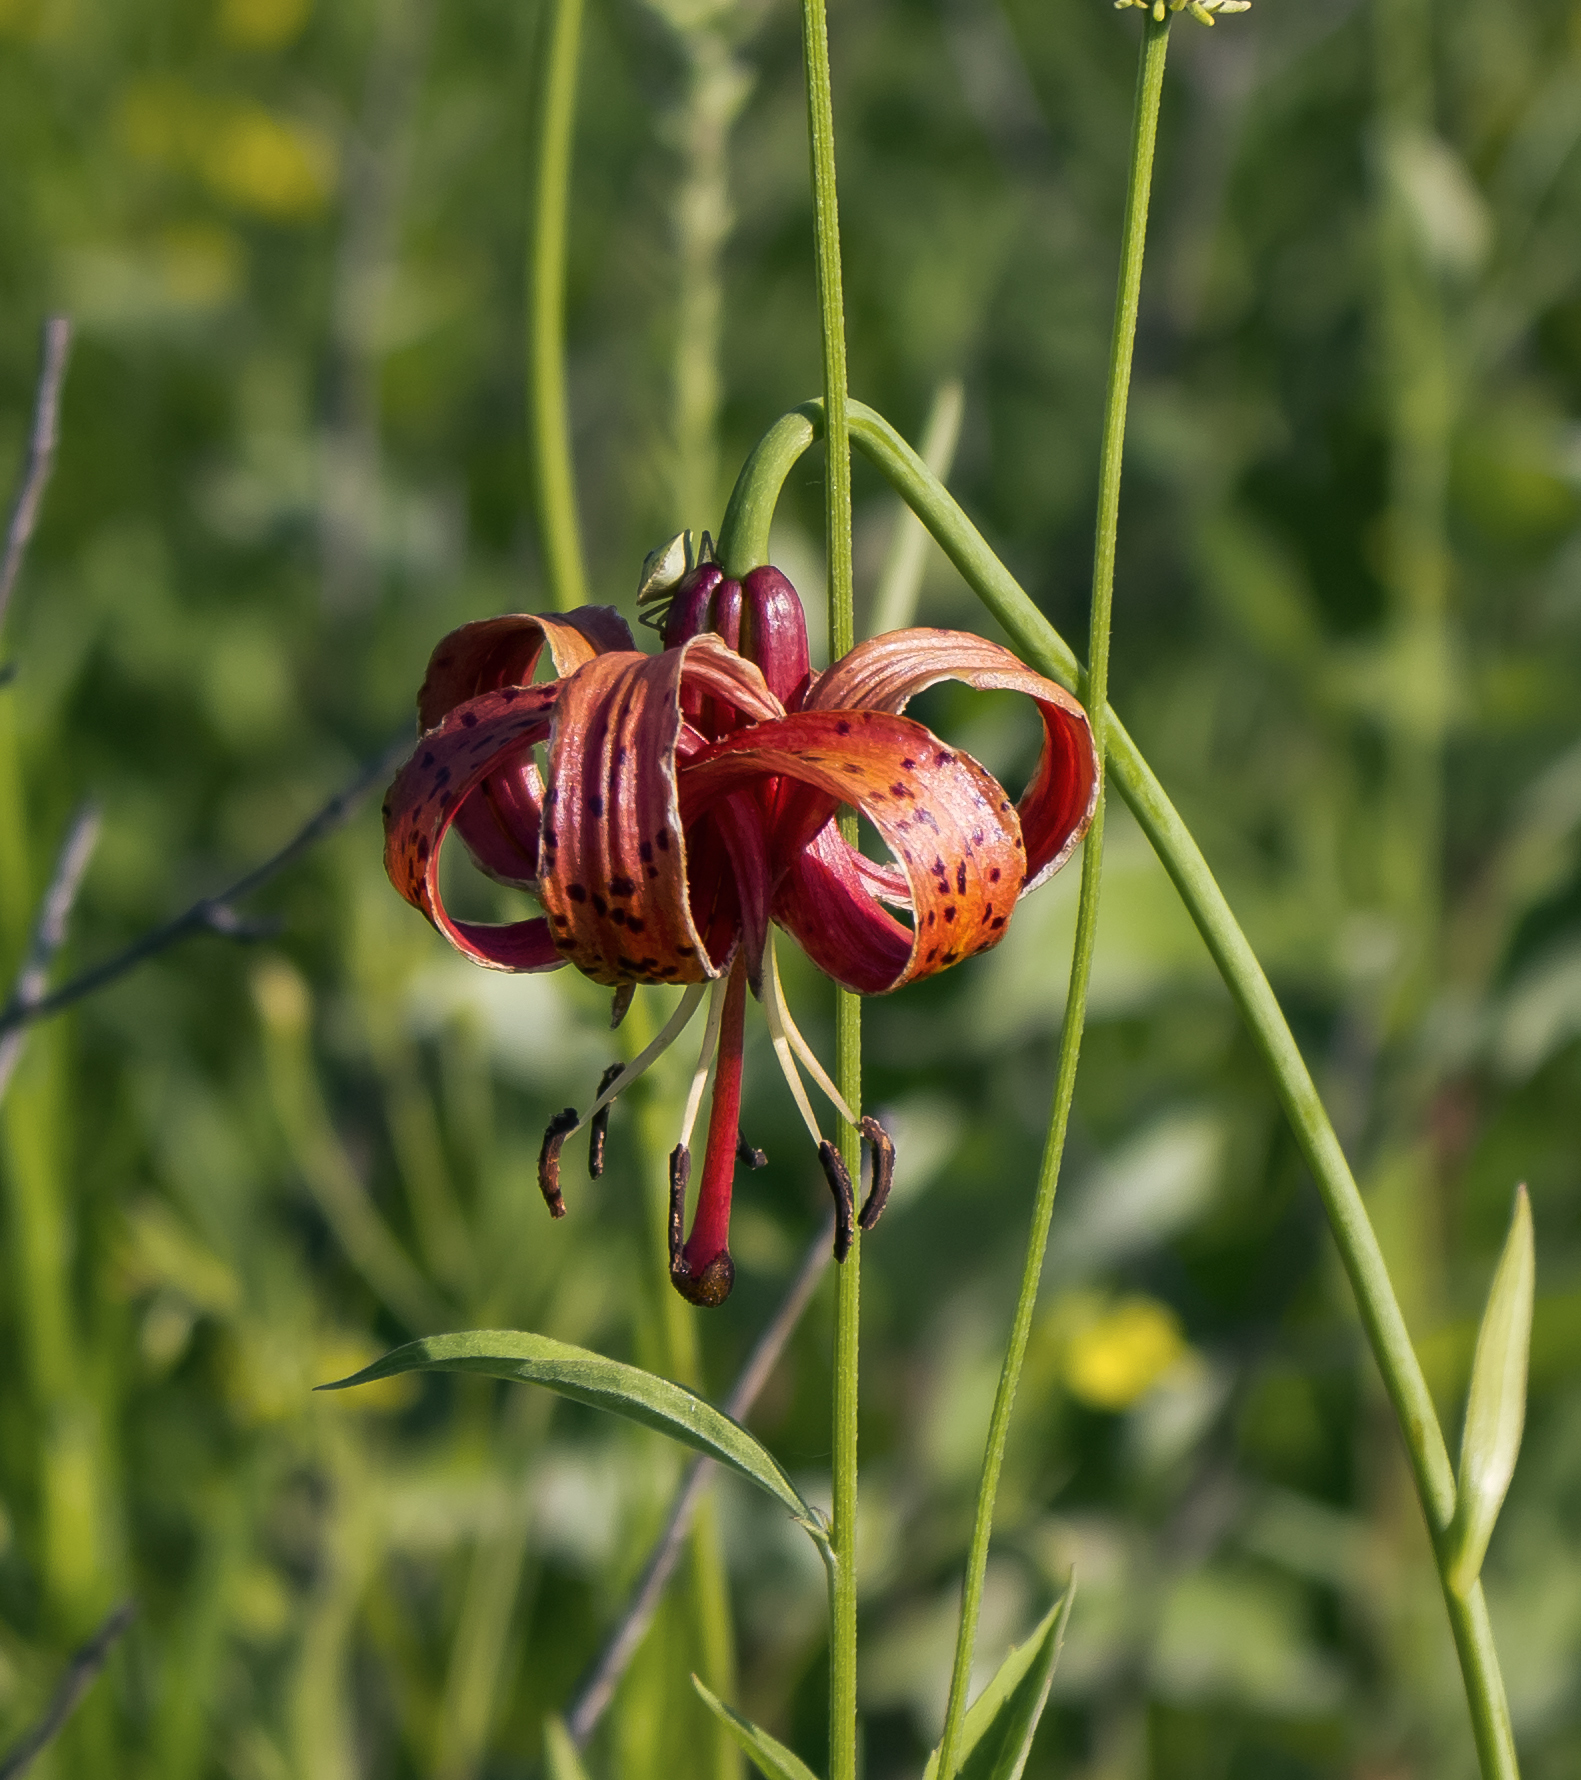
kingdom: Plantae
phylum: Tracheophyta
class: Liliopsida
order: Liliales
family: Liliaceae
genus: Lilium
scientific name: Lilium michiganense
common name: Michigan lily
